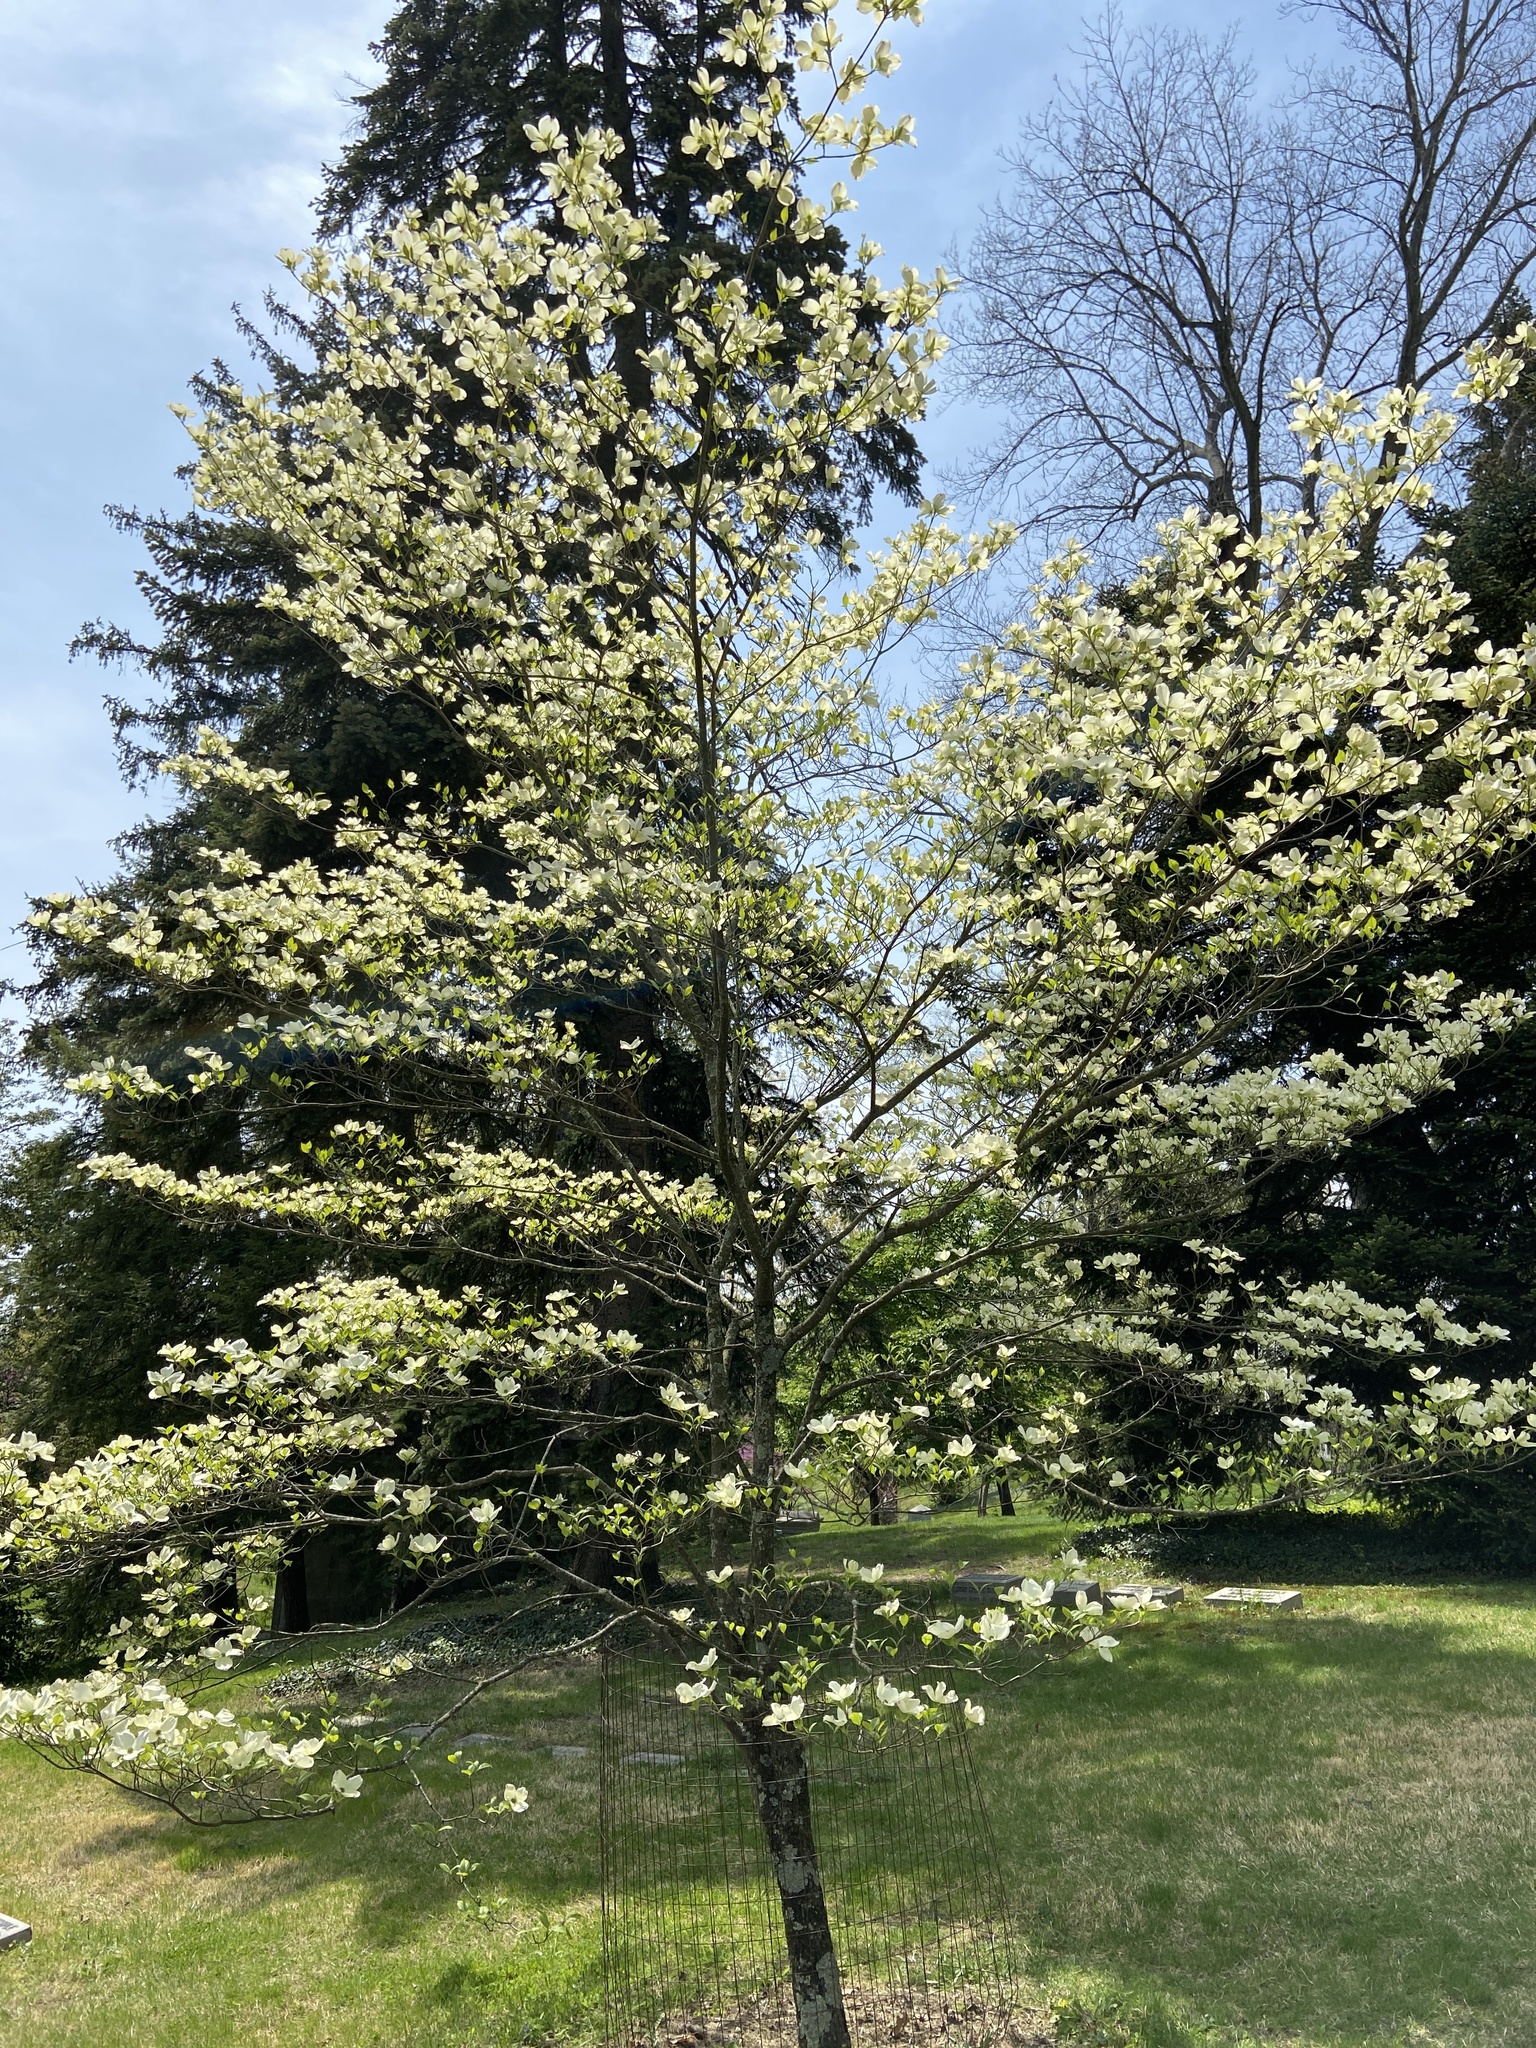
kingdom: Plantae
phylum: Tracheophyta
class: Magnoliopsida
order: Cornales
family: Cornaceae
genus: Cornus
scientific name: Cornus florida
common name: Flowering dogwood
